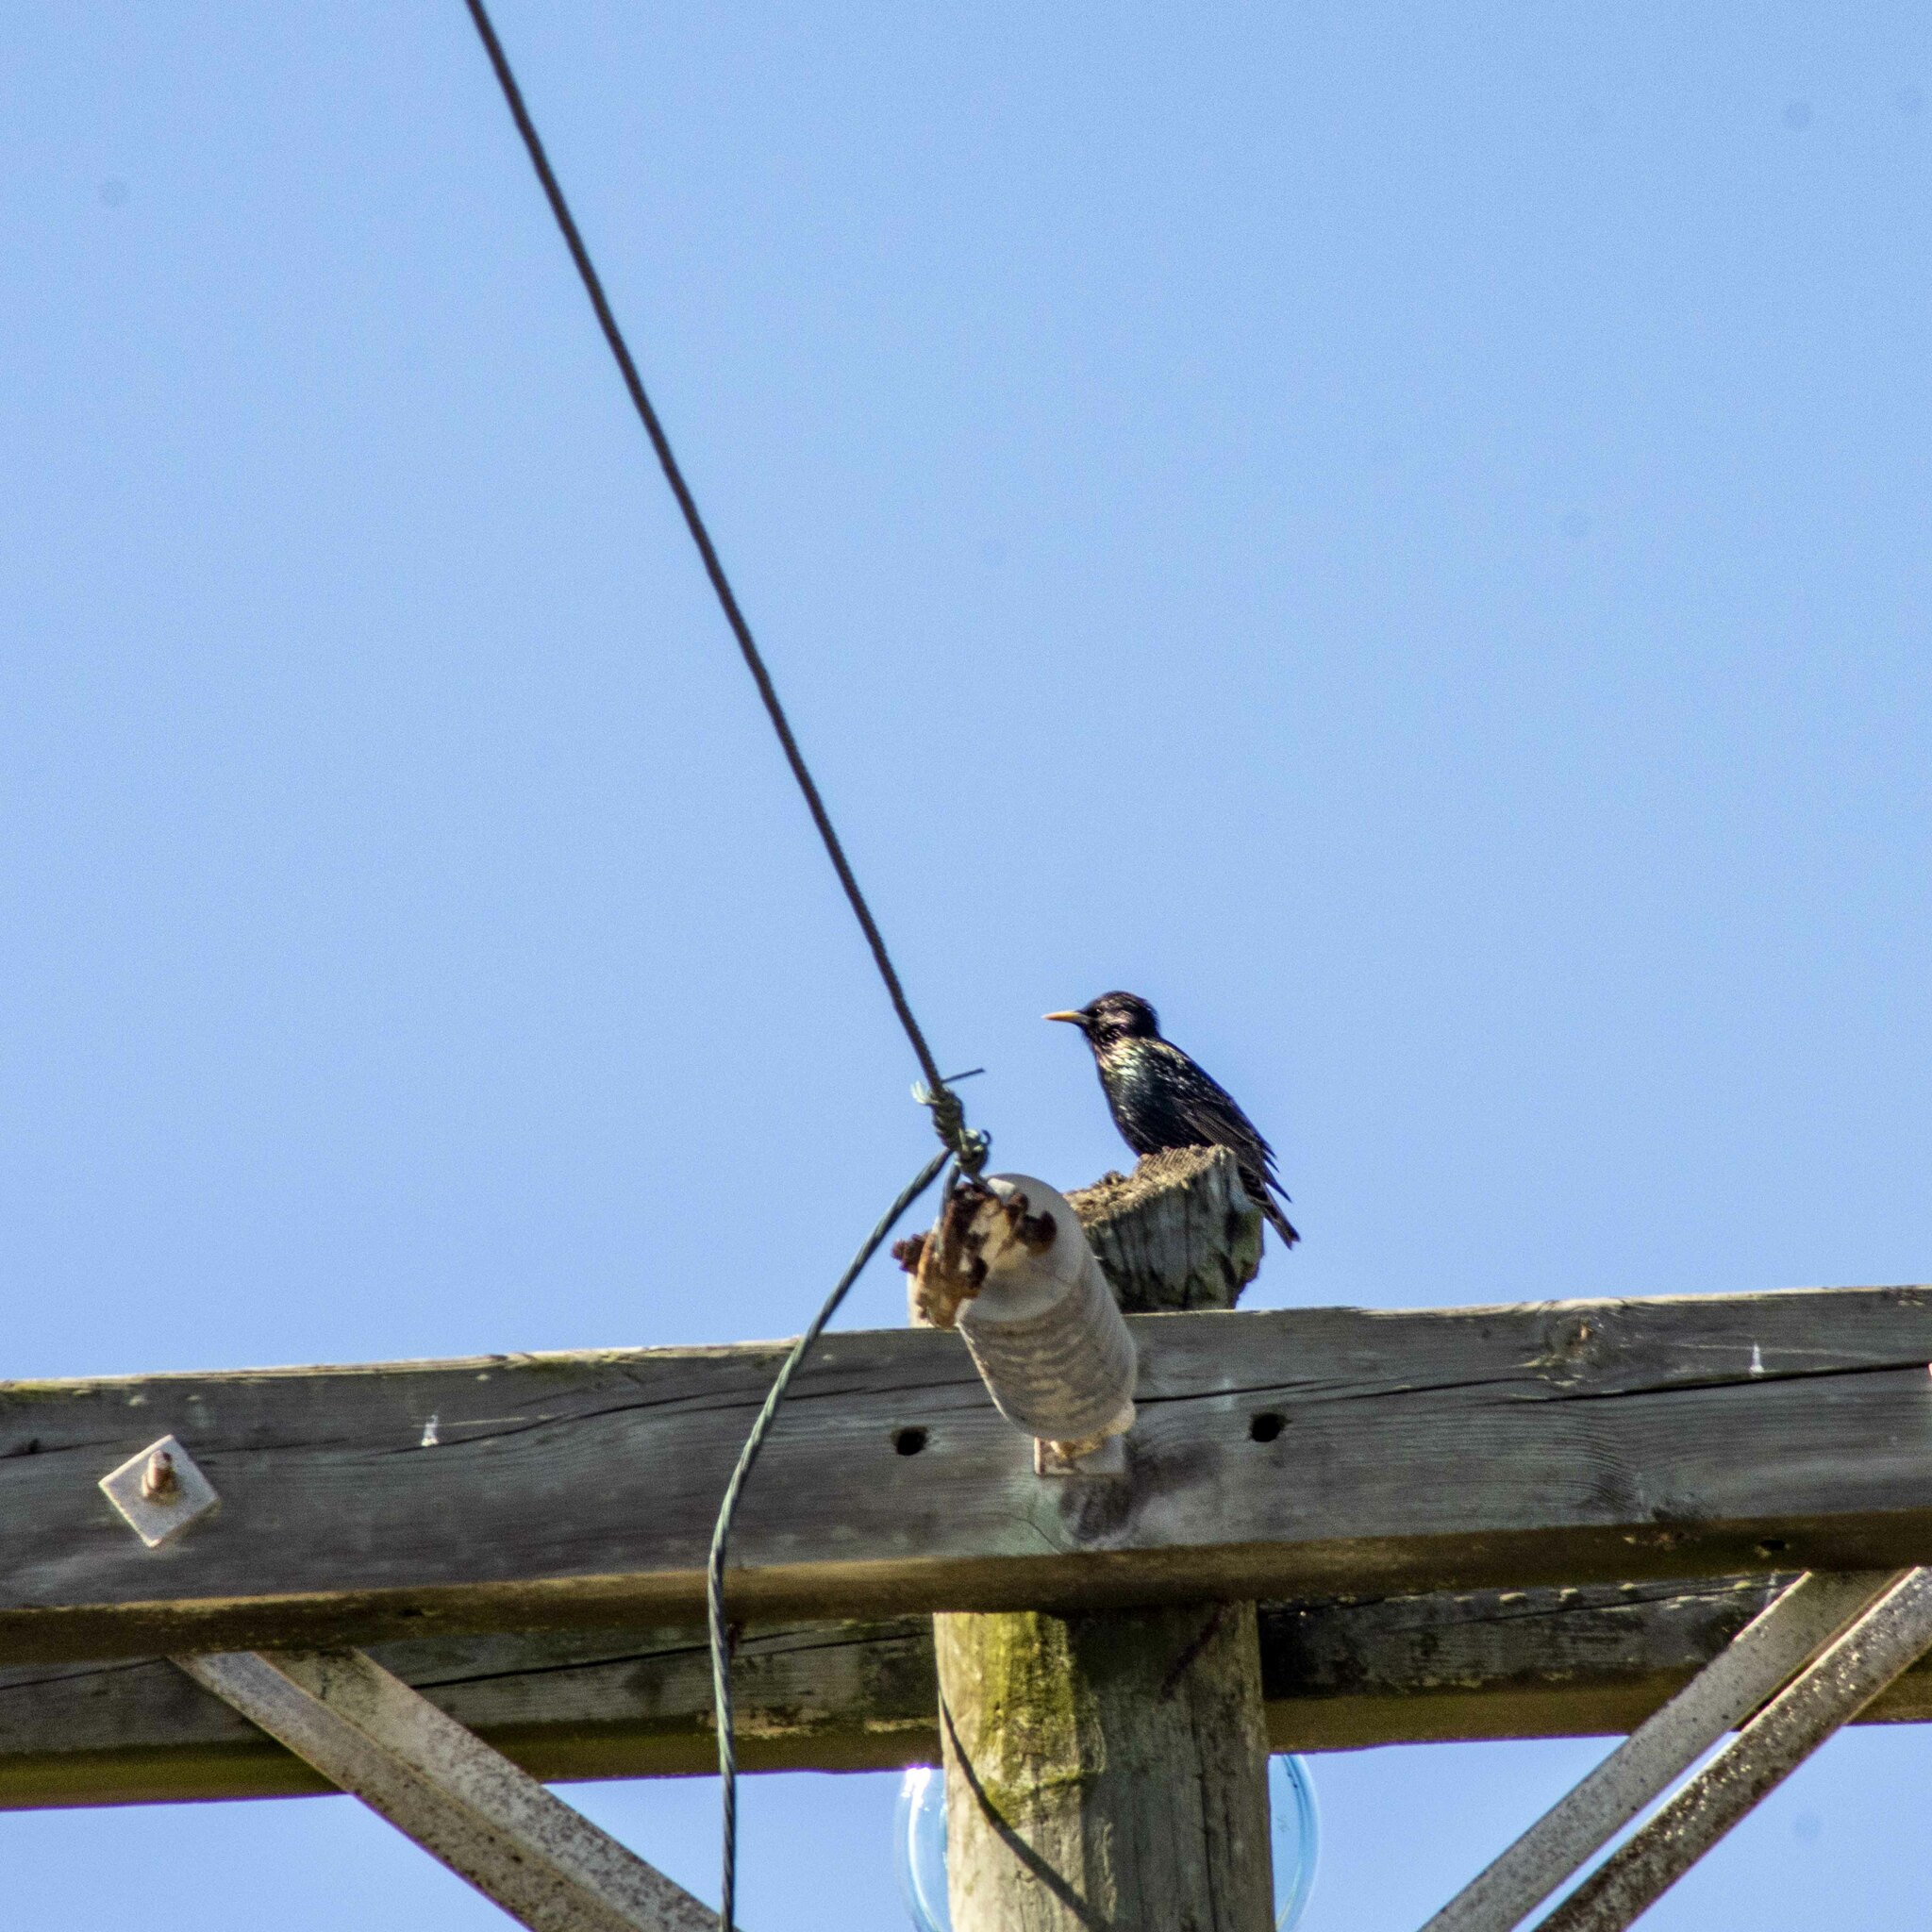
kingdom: Animalia
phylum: Chordata
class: Aves
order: Passeriformes
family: Sturnidae
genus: Sturnus
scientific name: Sturnus vulgaris
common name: Common starling
